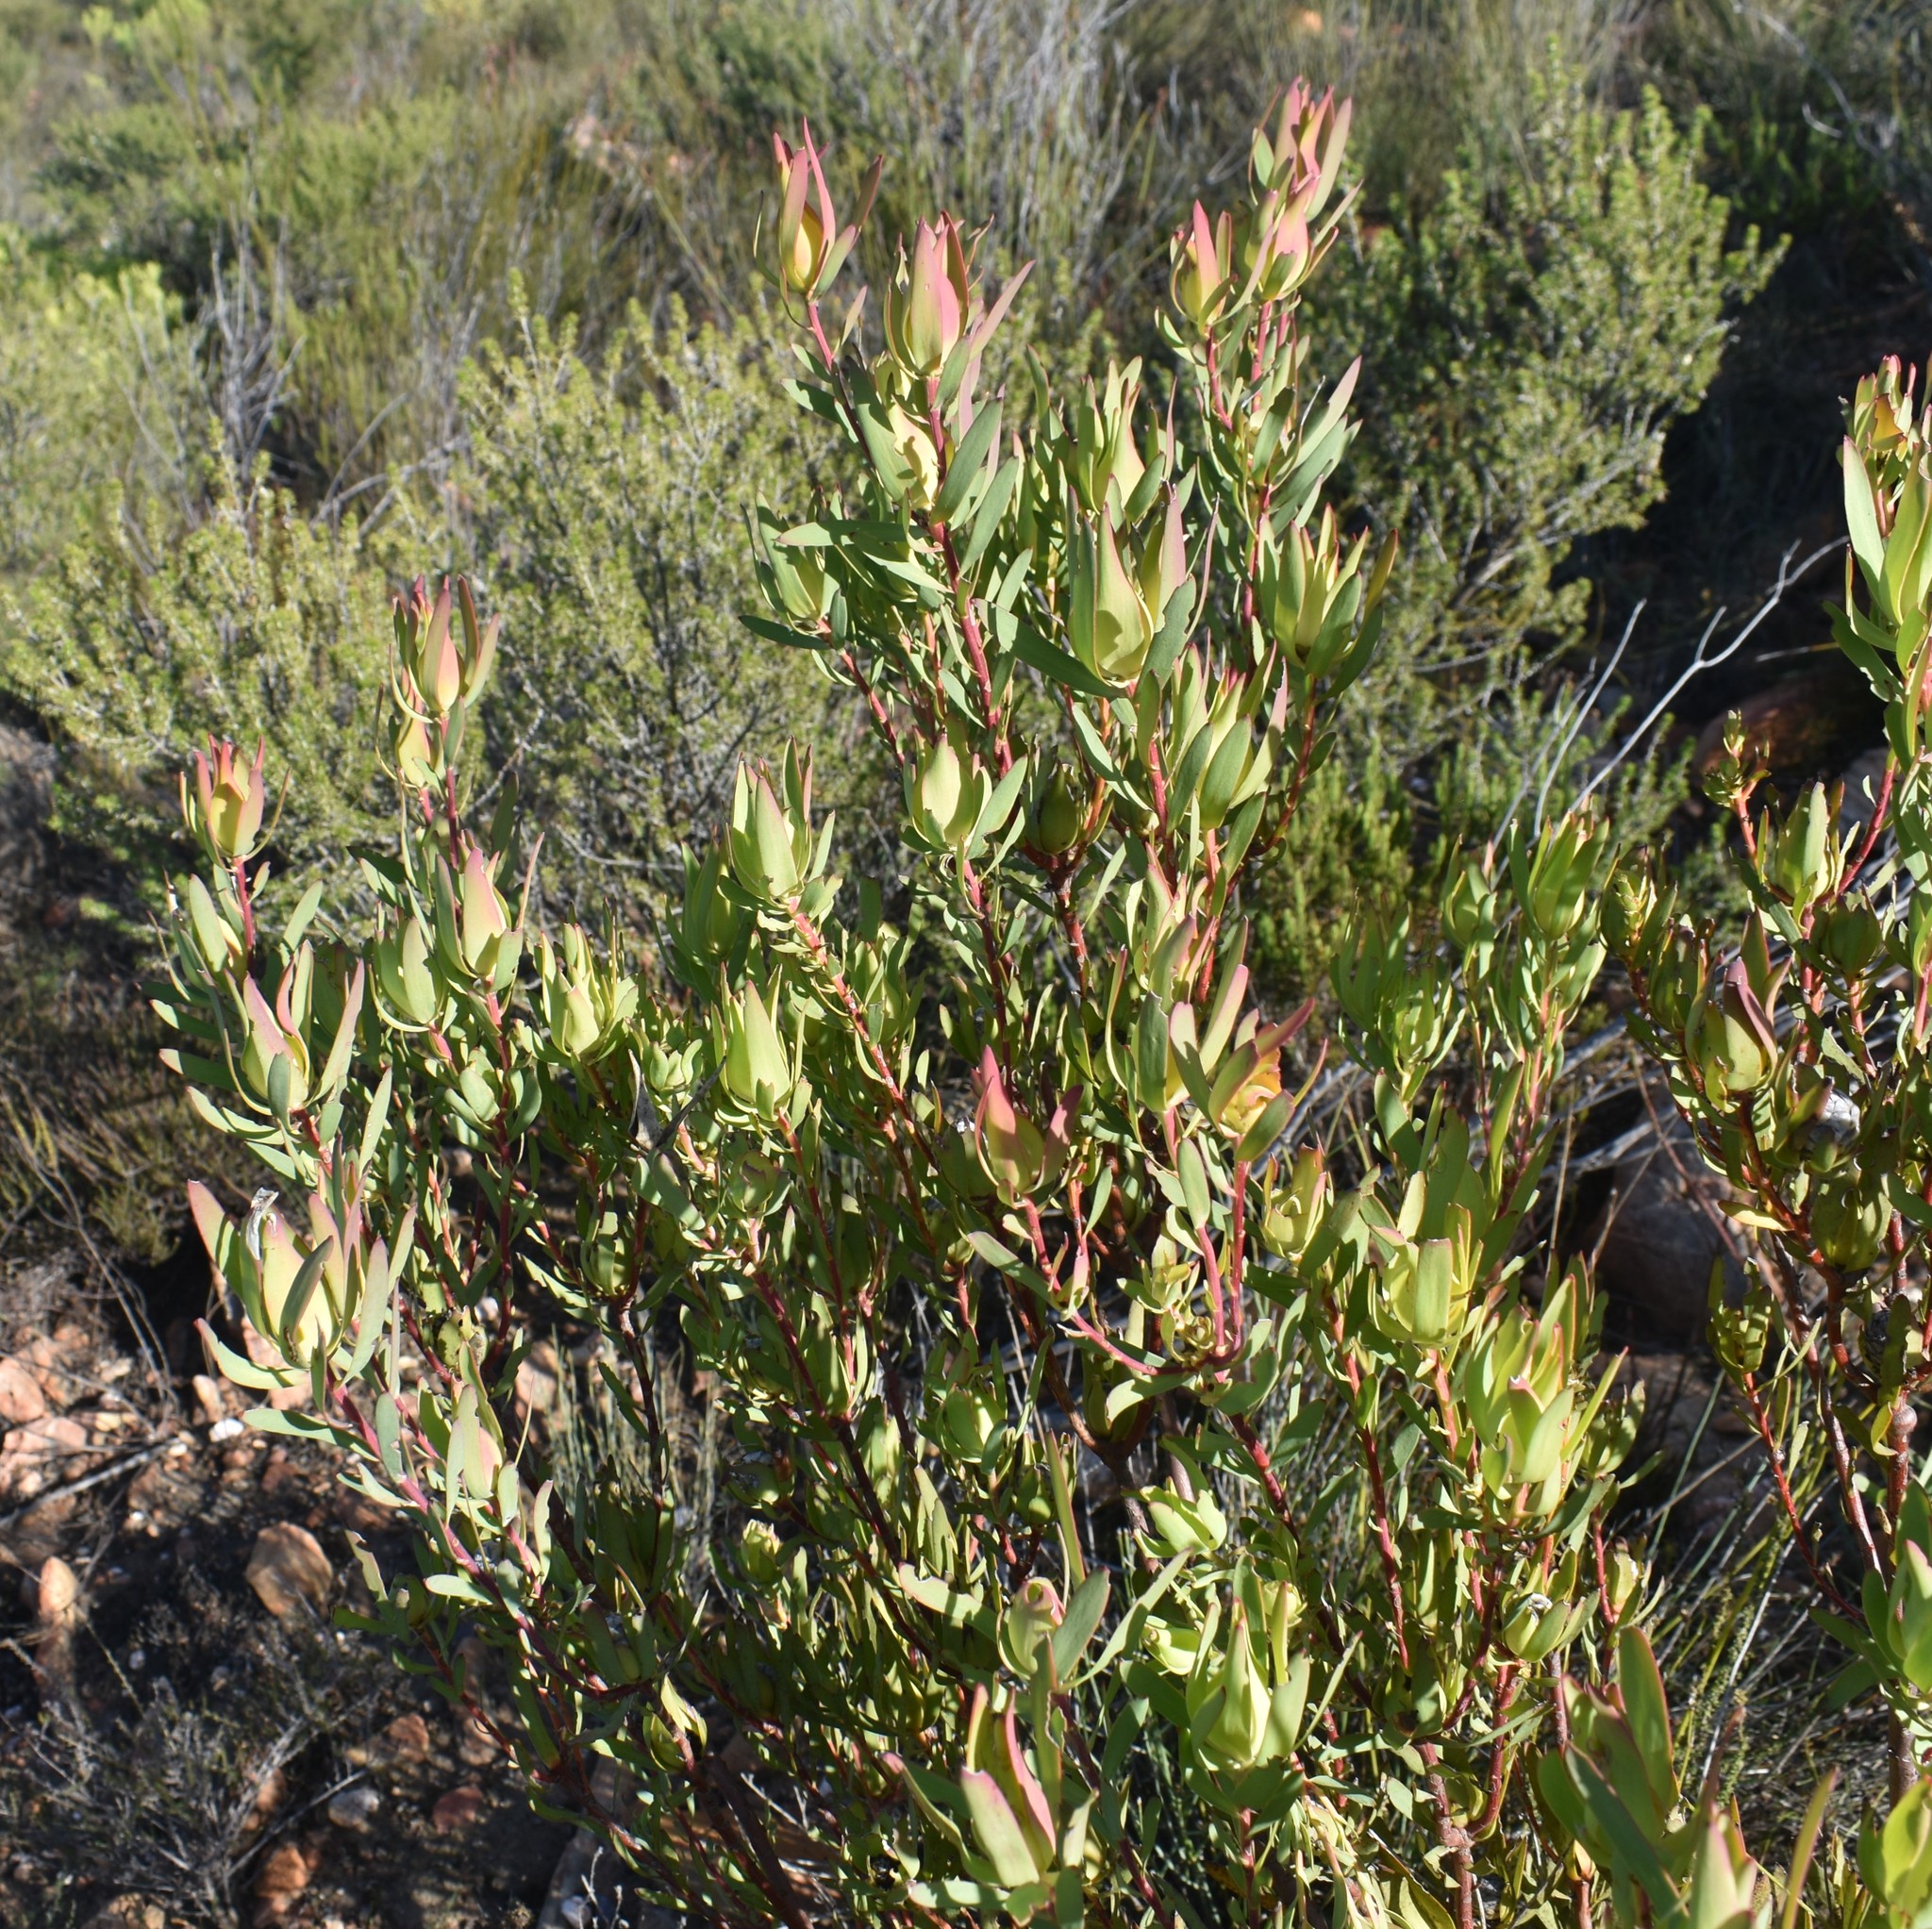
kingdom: Plantae
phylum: Tracheophyta
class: Magnoliopsida
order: Proteales
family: Proteaceae
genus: Leucadendron
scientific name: Leucadendron salignum
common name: Common sunshine conebush
